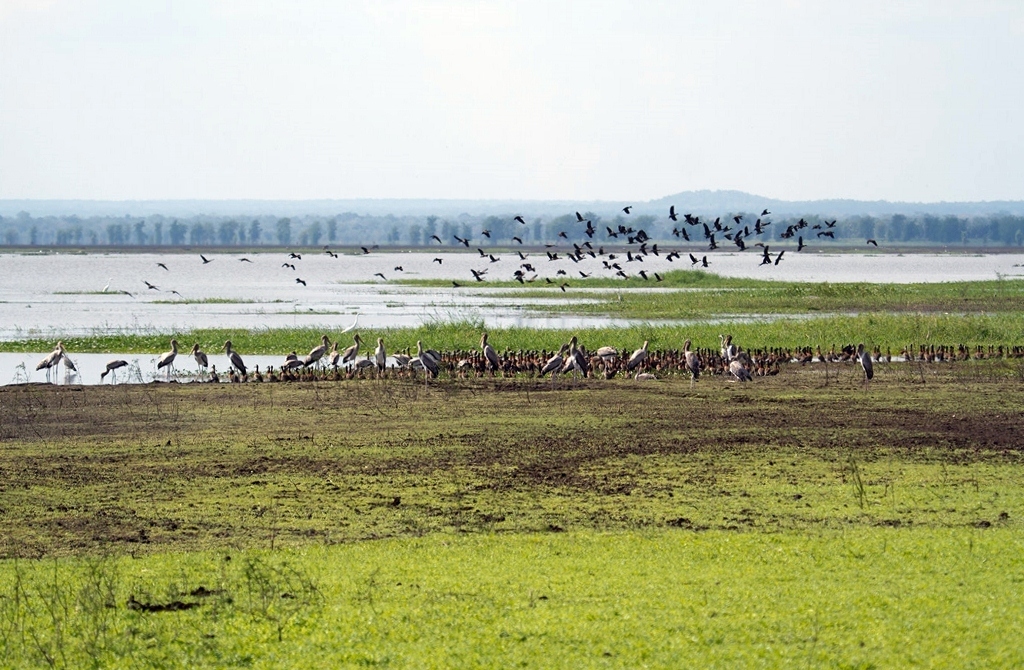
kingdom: Animalia
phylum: Chordata
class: Aves
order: Anseriformes
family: Anatidae
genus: Dendrocygna
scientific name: Dendrocygna viduata
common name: White-faced whistling duck
